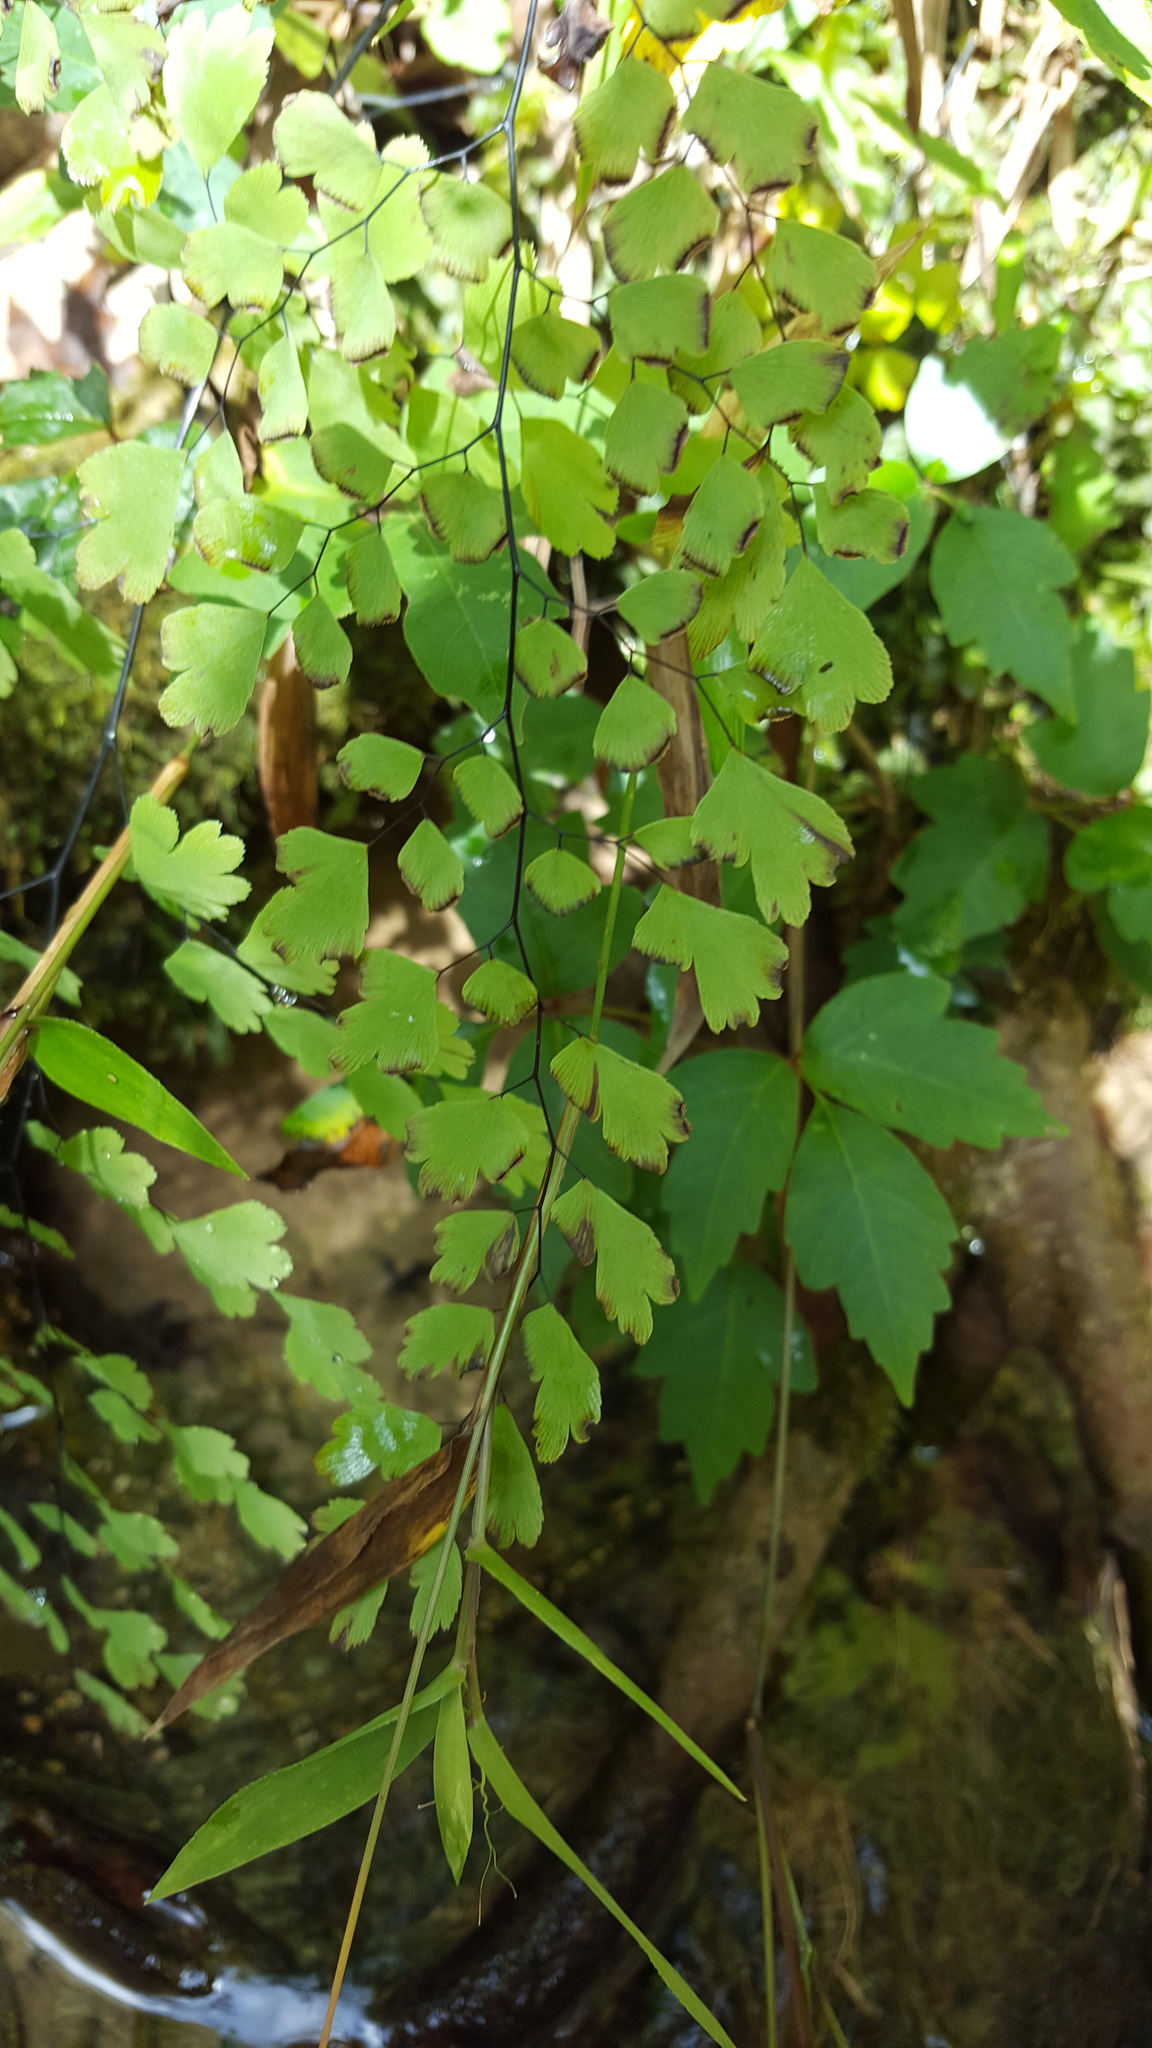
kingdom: Plantae
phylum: Tracheophyta
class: Polypodiopsida
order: Polypodiales
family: Pteridaceae
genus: Adiantum
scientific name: Adiantum capillus-veneris
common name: Maidenhair fern
